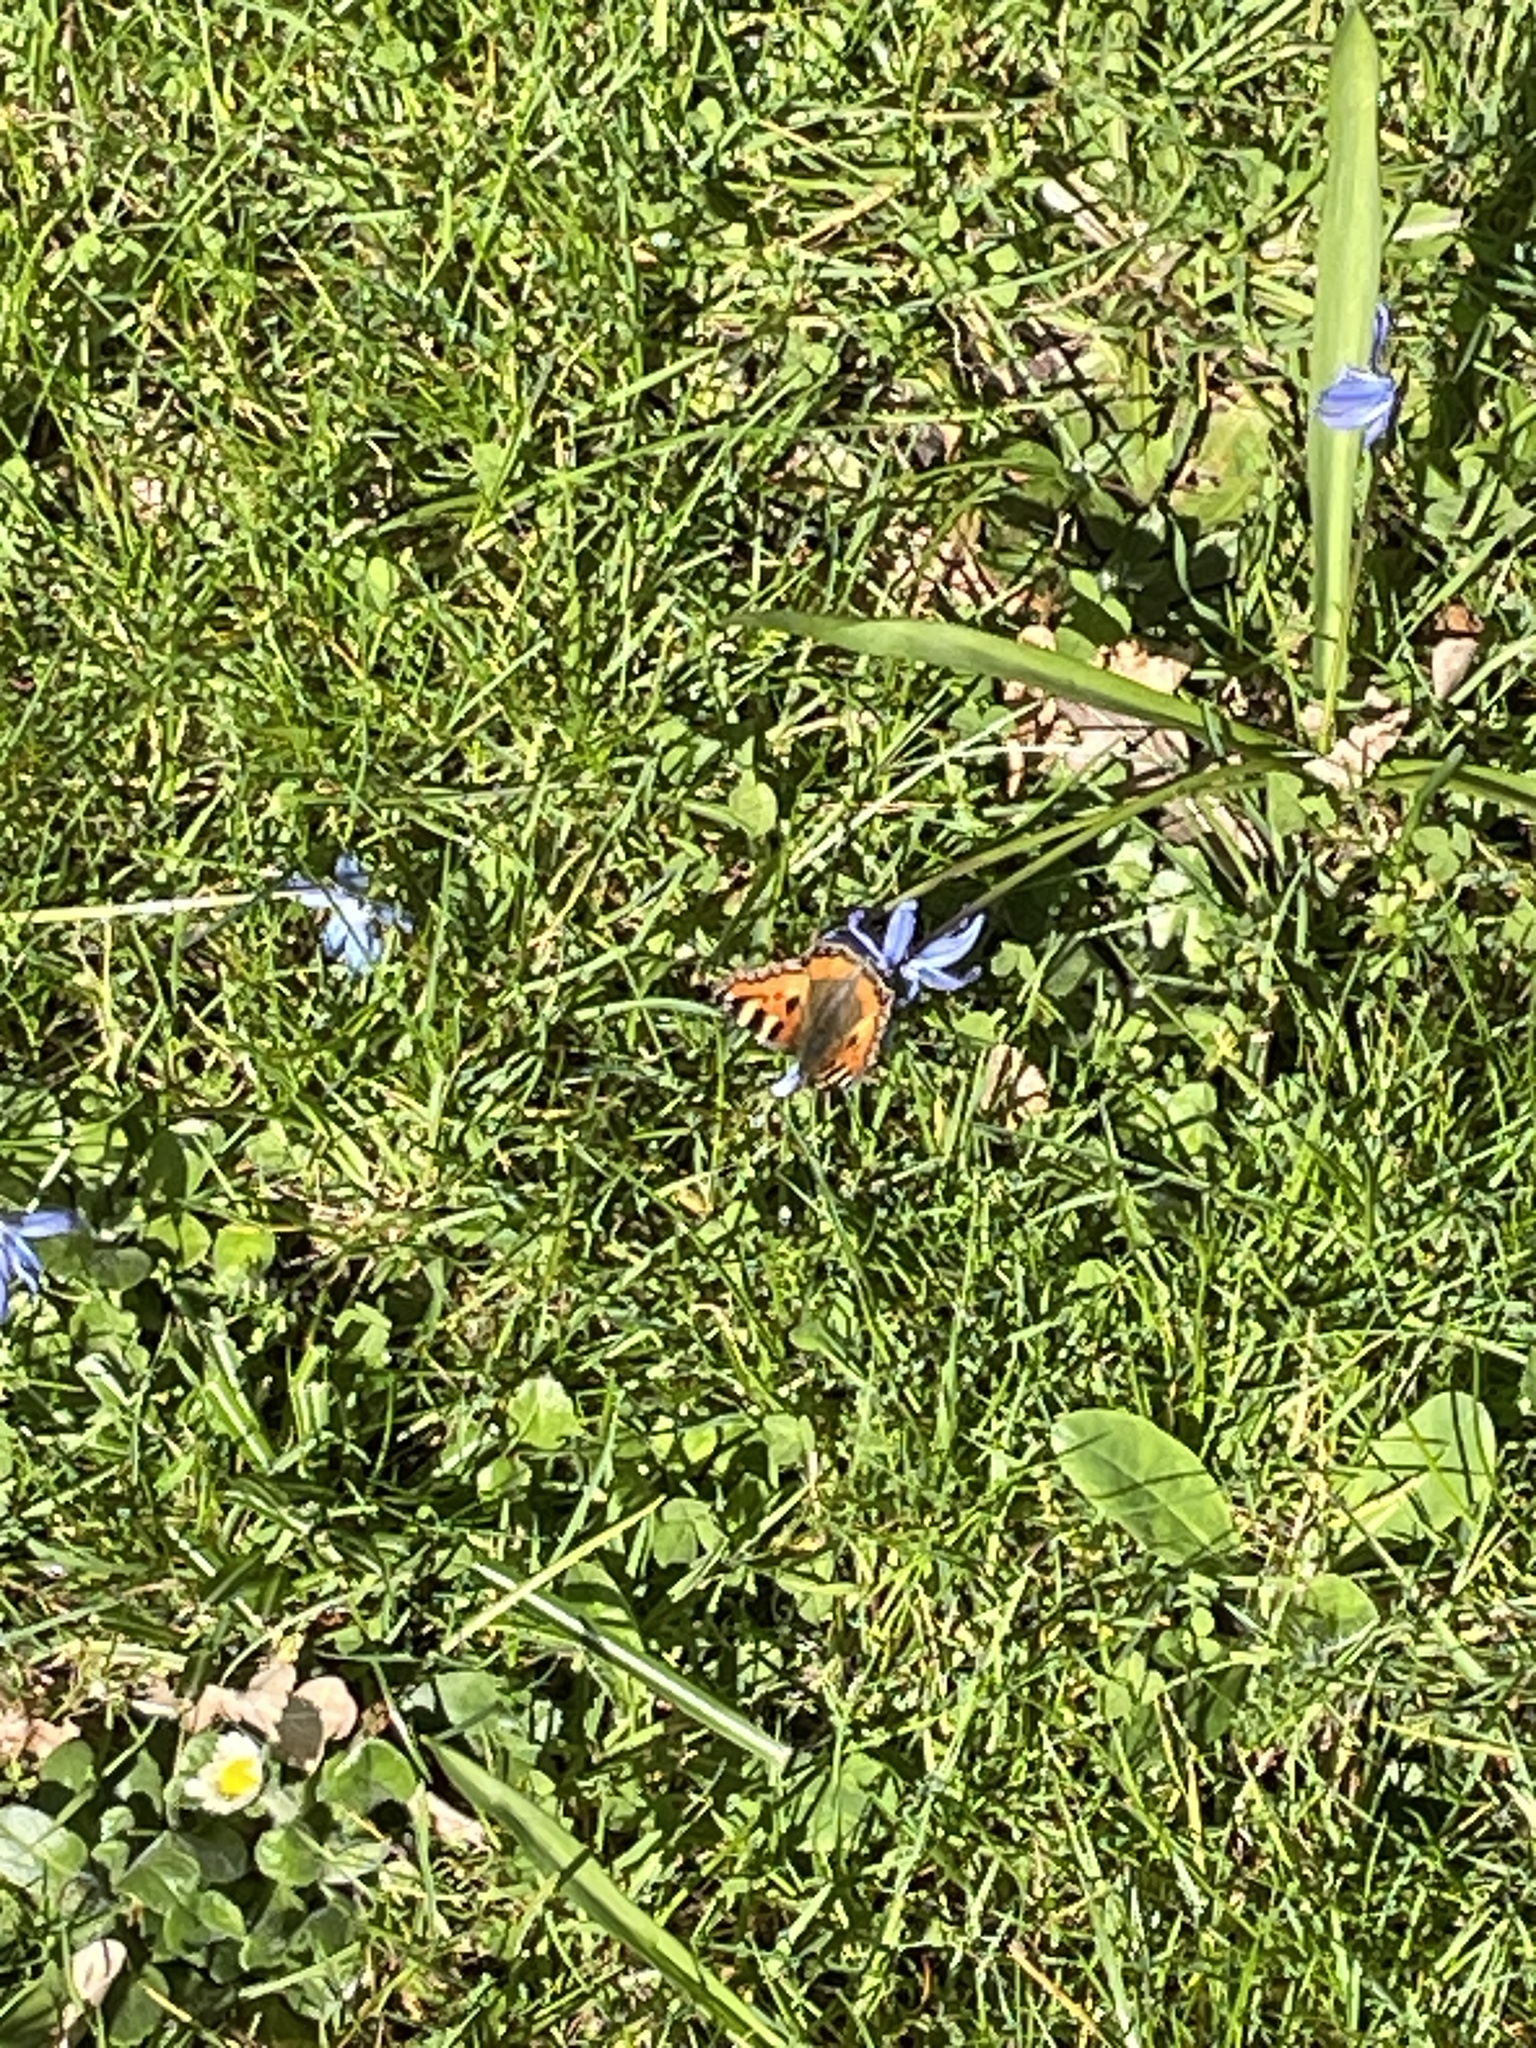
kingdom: Animalia
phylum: Arthropoda
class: Insecta
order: Lepidoptera
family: Nymphalidae
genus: Aglais
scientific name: Aglais urticae
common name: Small tortoiseshell
